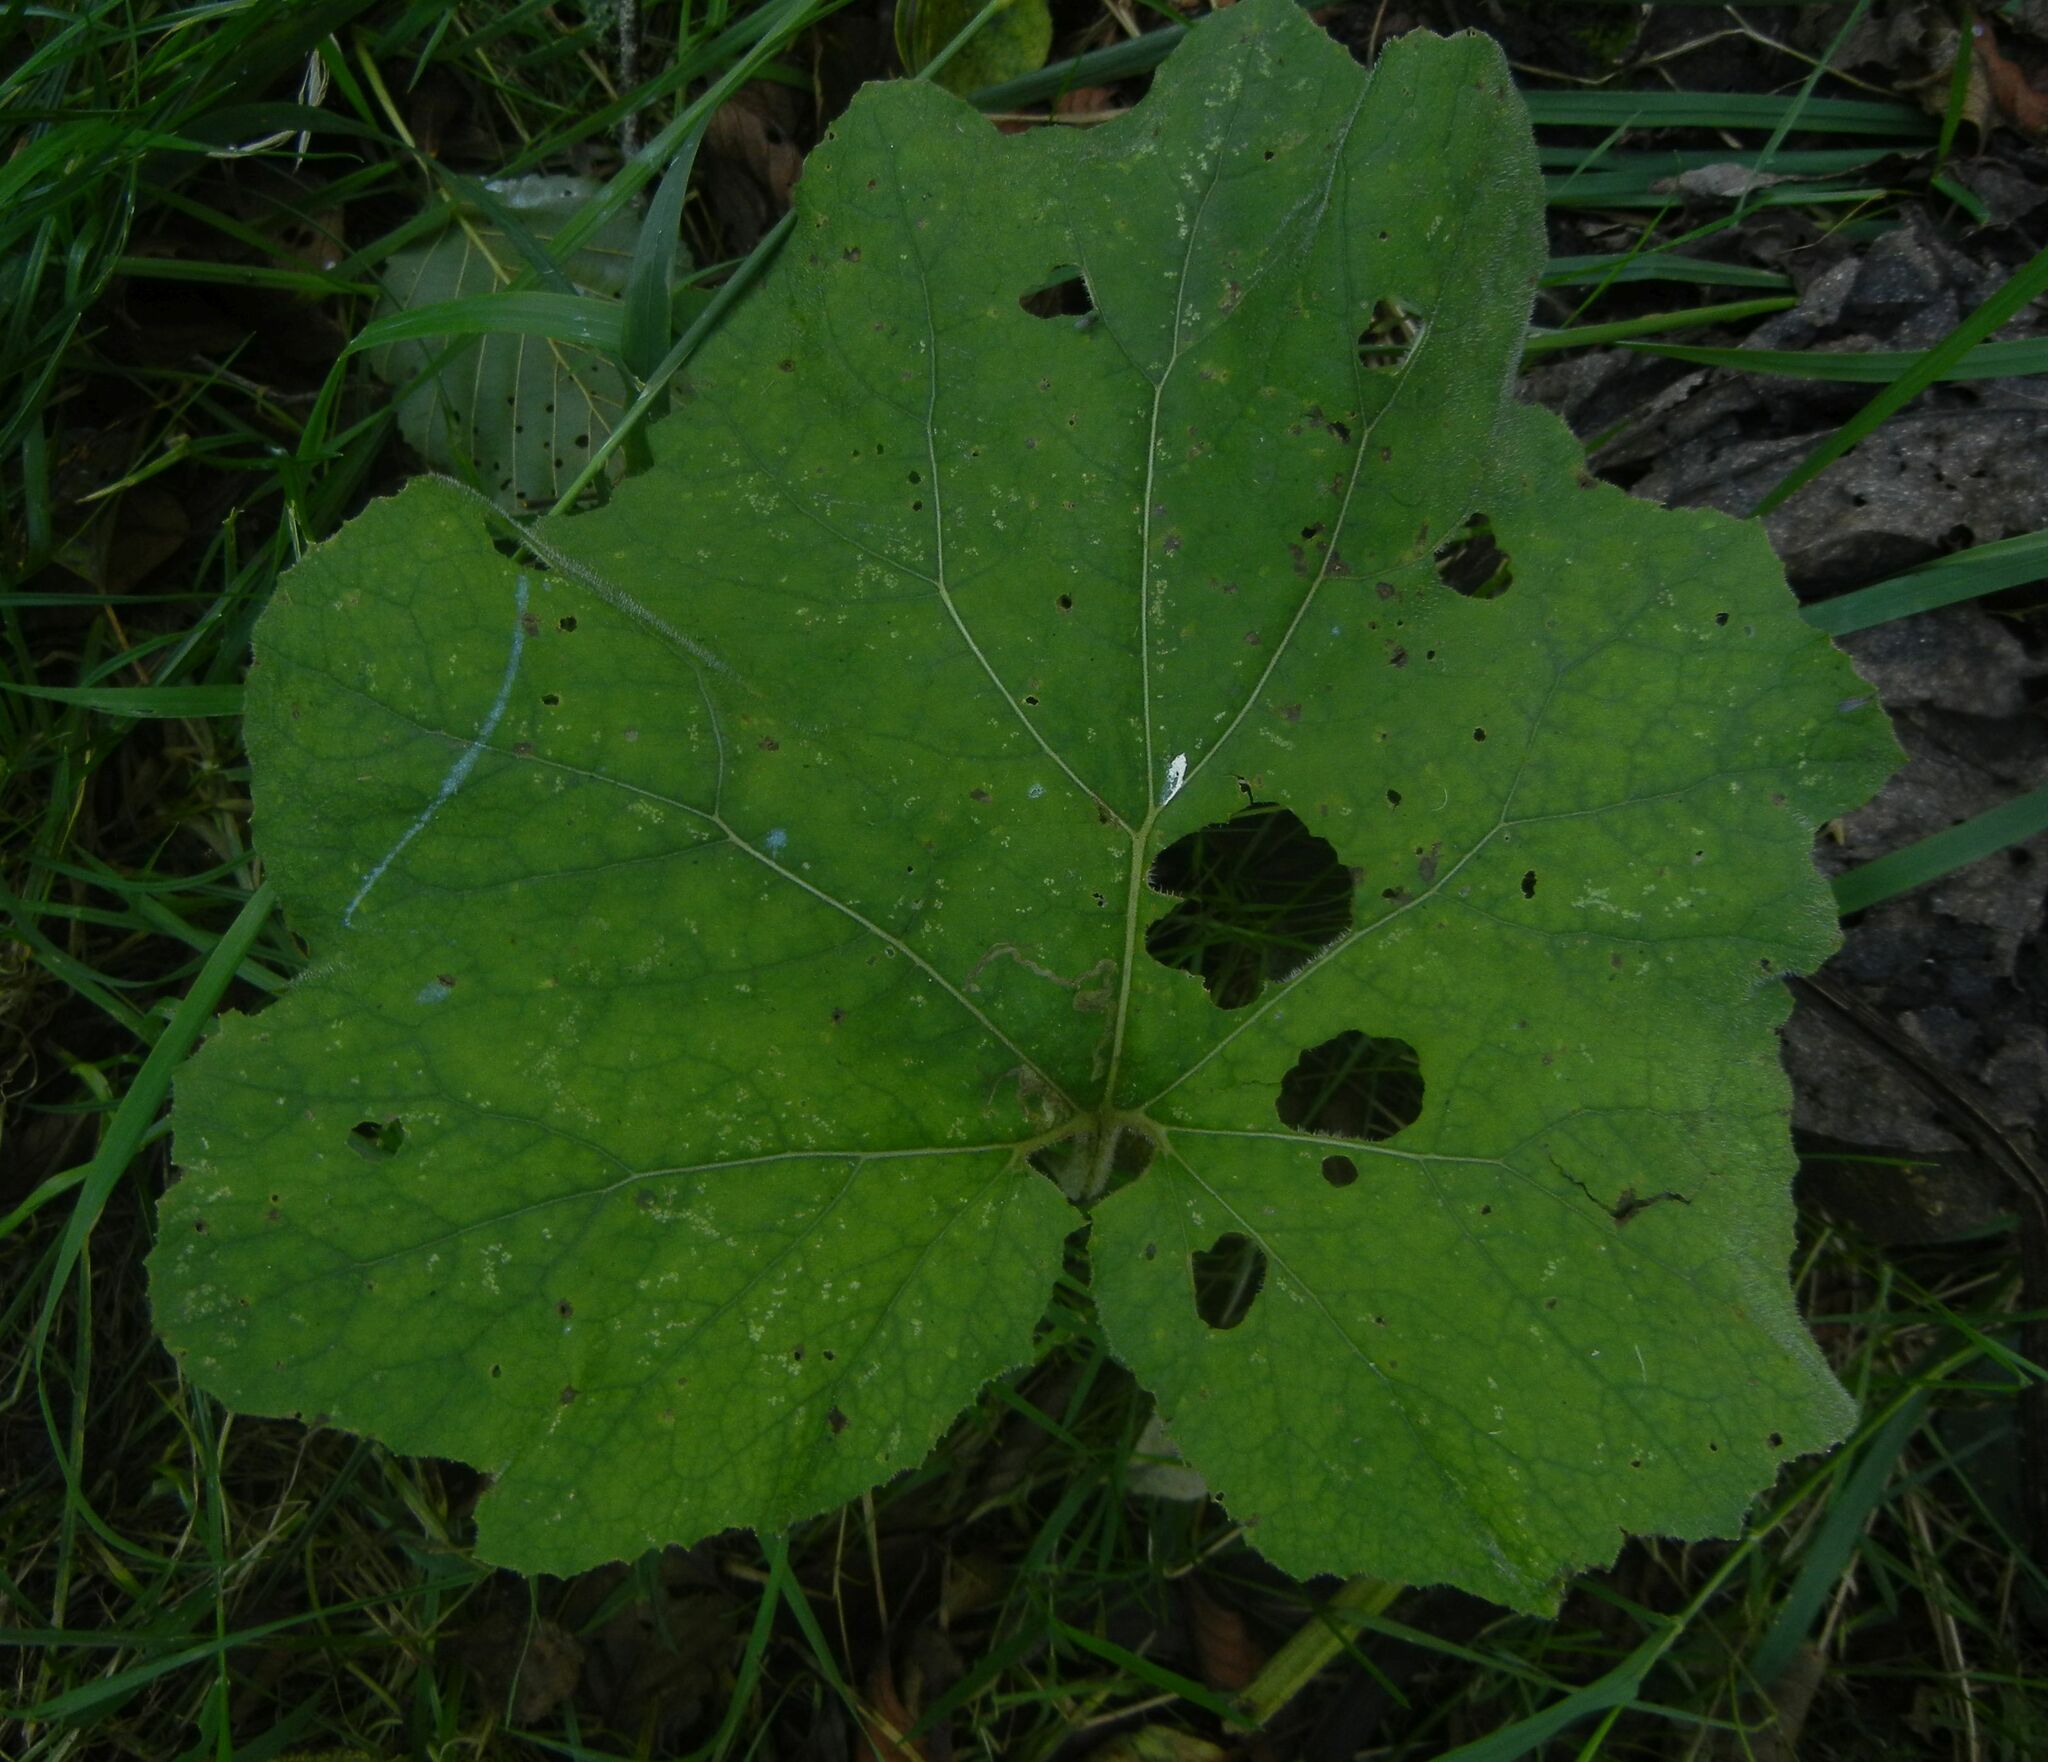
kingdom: Plantae
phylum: Tracheophyta
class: Magnoliopsida
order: Asterales
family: Asteraceae
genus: Tussilago
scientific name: Tussilago farfara
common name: Coltsfoot
